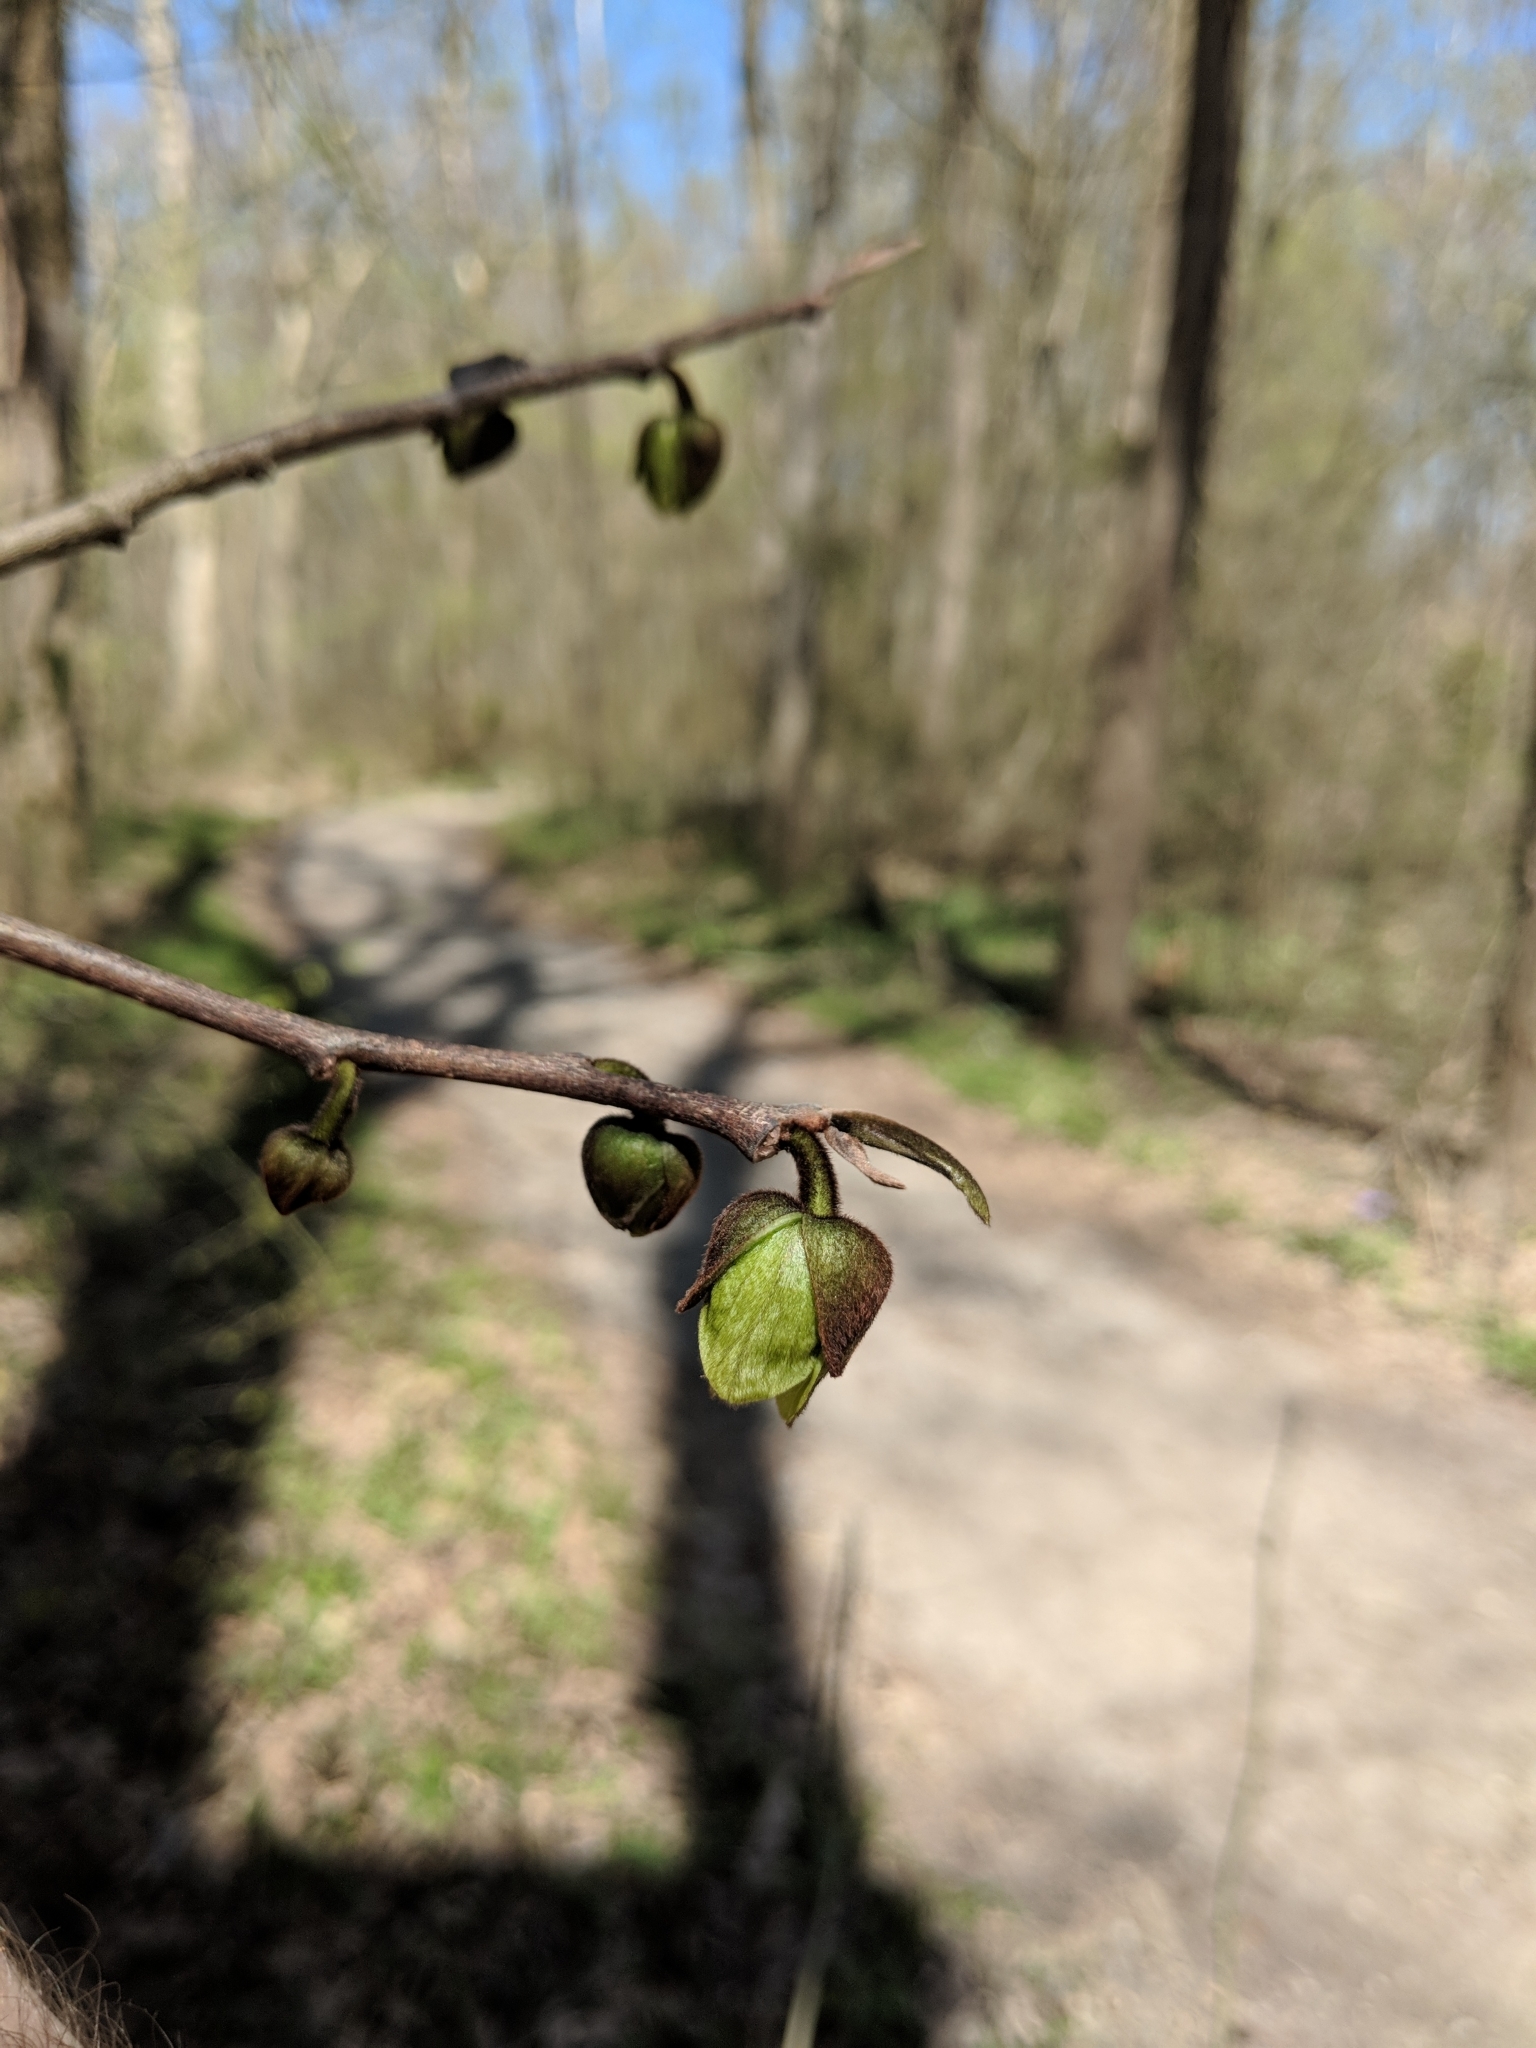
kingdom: Plantae
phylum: Tracheophyta
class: Magnoliopsida
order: Magnoliales
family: Annonaceae
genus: Asimina
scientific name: Asimina triloba
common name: Dog-banana
